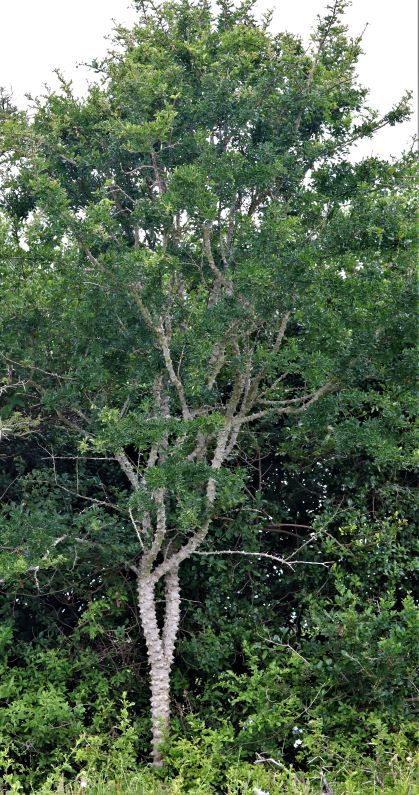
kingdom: Plantae
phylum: Tracheophyta
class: Magnoliopsida
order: Sapindales
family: Rutaceae
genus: Zanthoxylum
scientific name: Zanthoxylum capense
